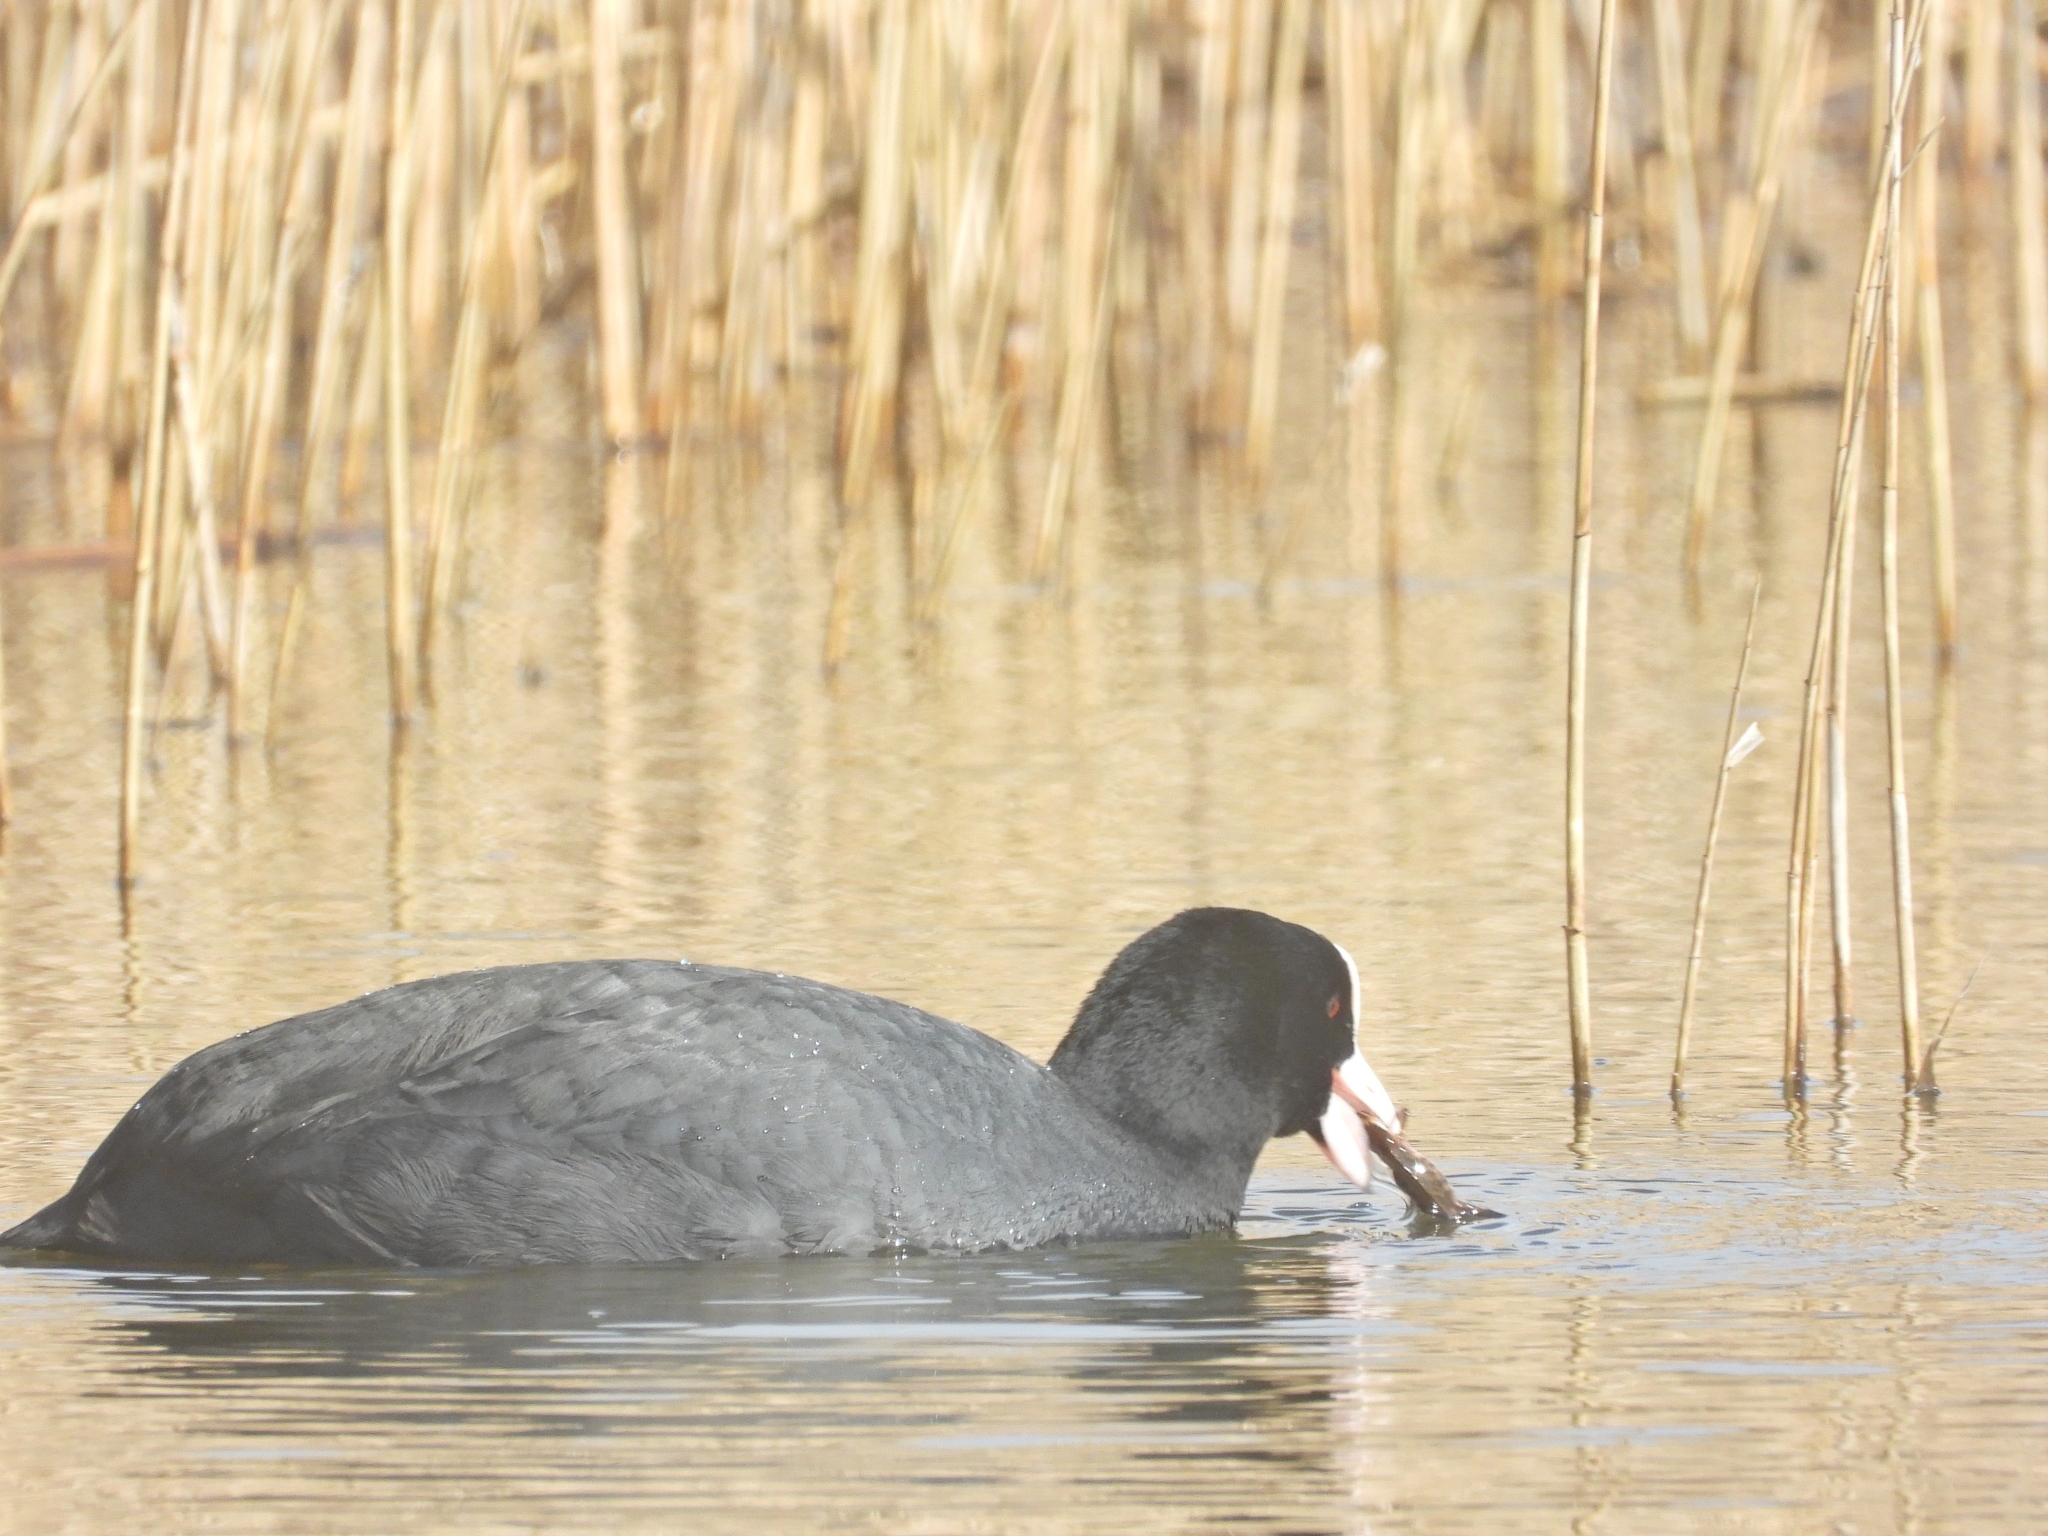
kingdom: Animalia
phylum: Chordata
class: Aves
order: Gruiformes
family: Rallidae
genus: Fulica
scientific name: Fulica atra
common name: Eurasian coot
